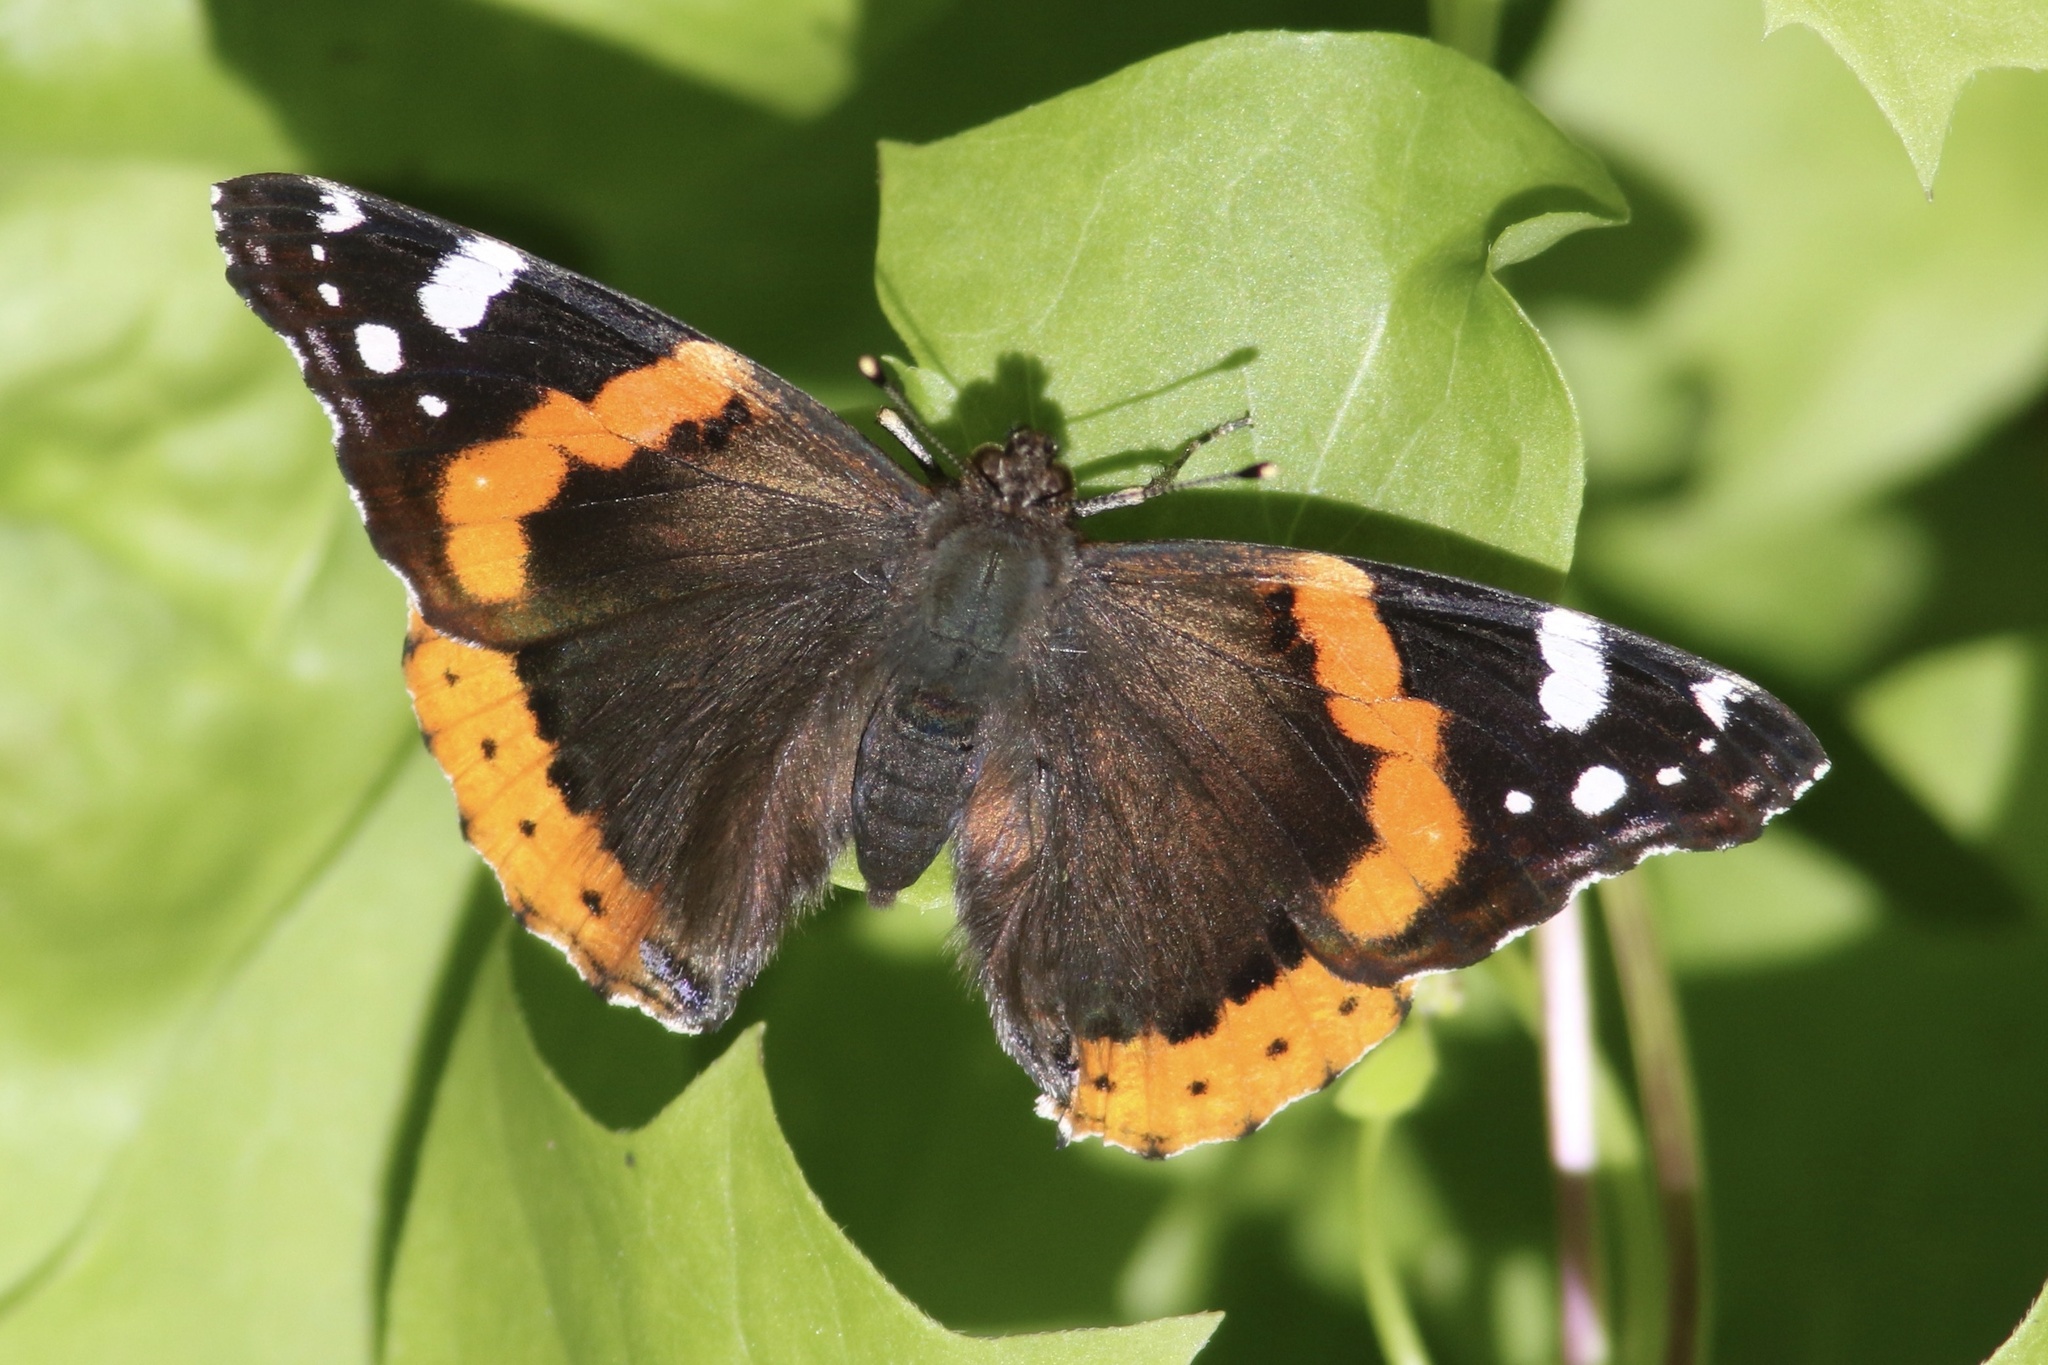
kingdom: Animalia
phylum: Arthropoda
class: Insecta
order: Lepidoptera
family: Nymphalidae
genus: Vanessa
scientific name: Vanessa atalanta
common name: Red admiral
